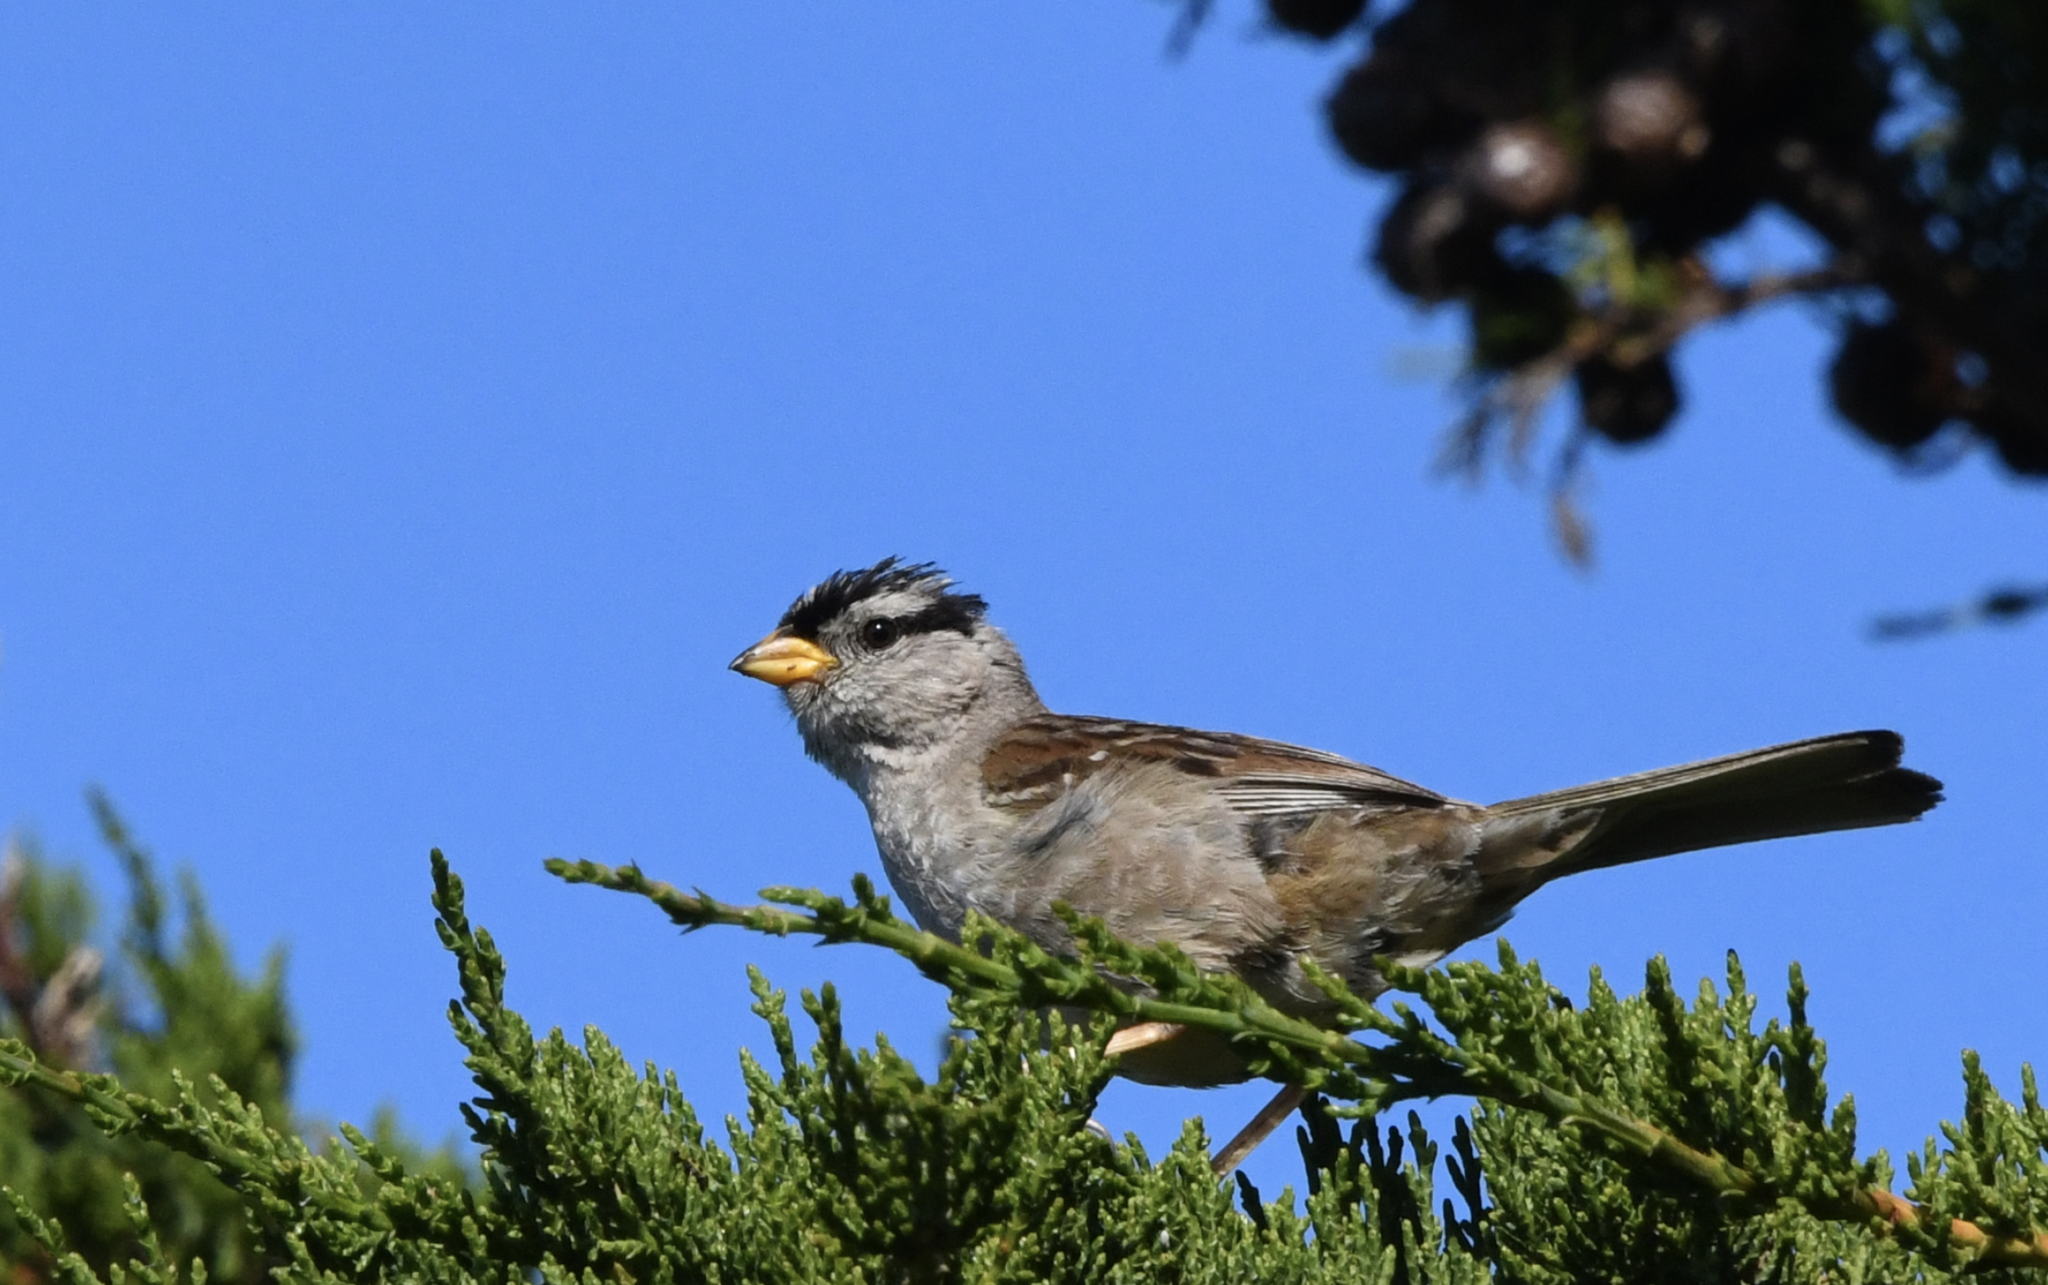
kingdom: Animalia
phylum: Chordata
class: Aves
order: Passeriformes
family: Passerellidae
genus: Zonotrichia
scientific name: Zonotrichia leucophrys
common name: White-crowned sparrow
